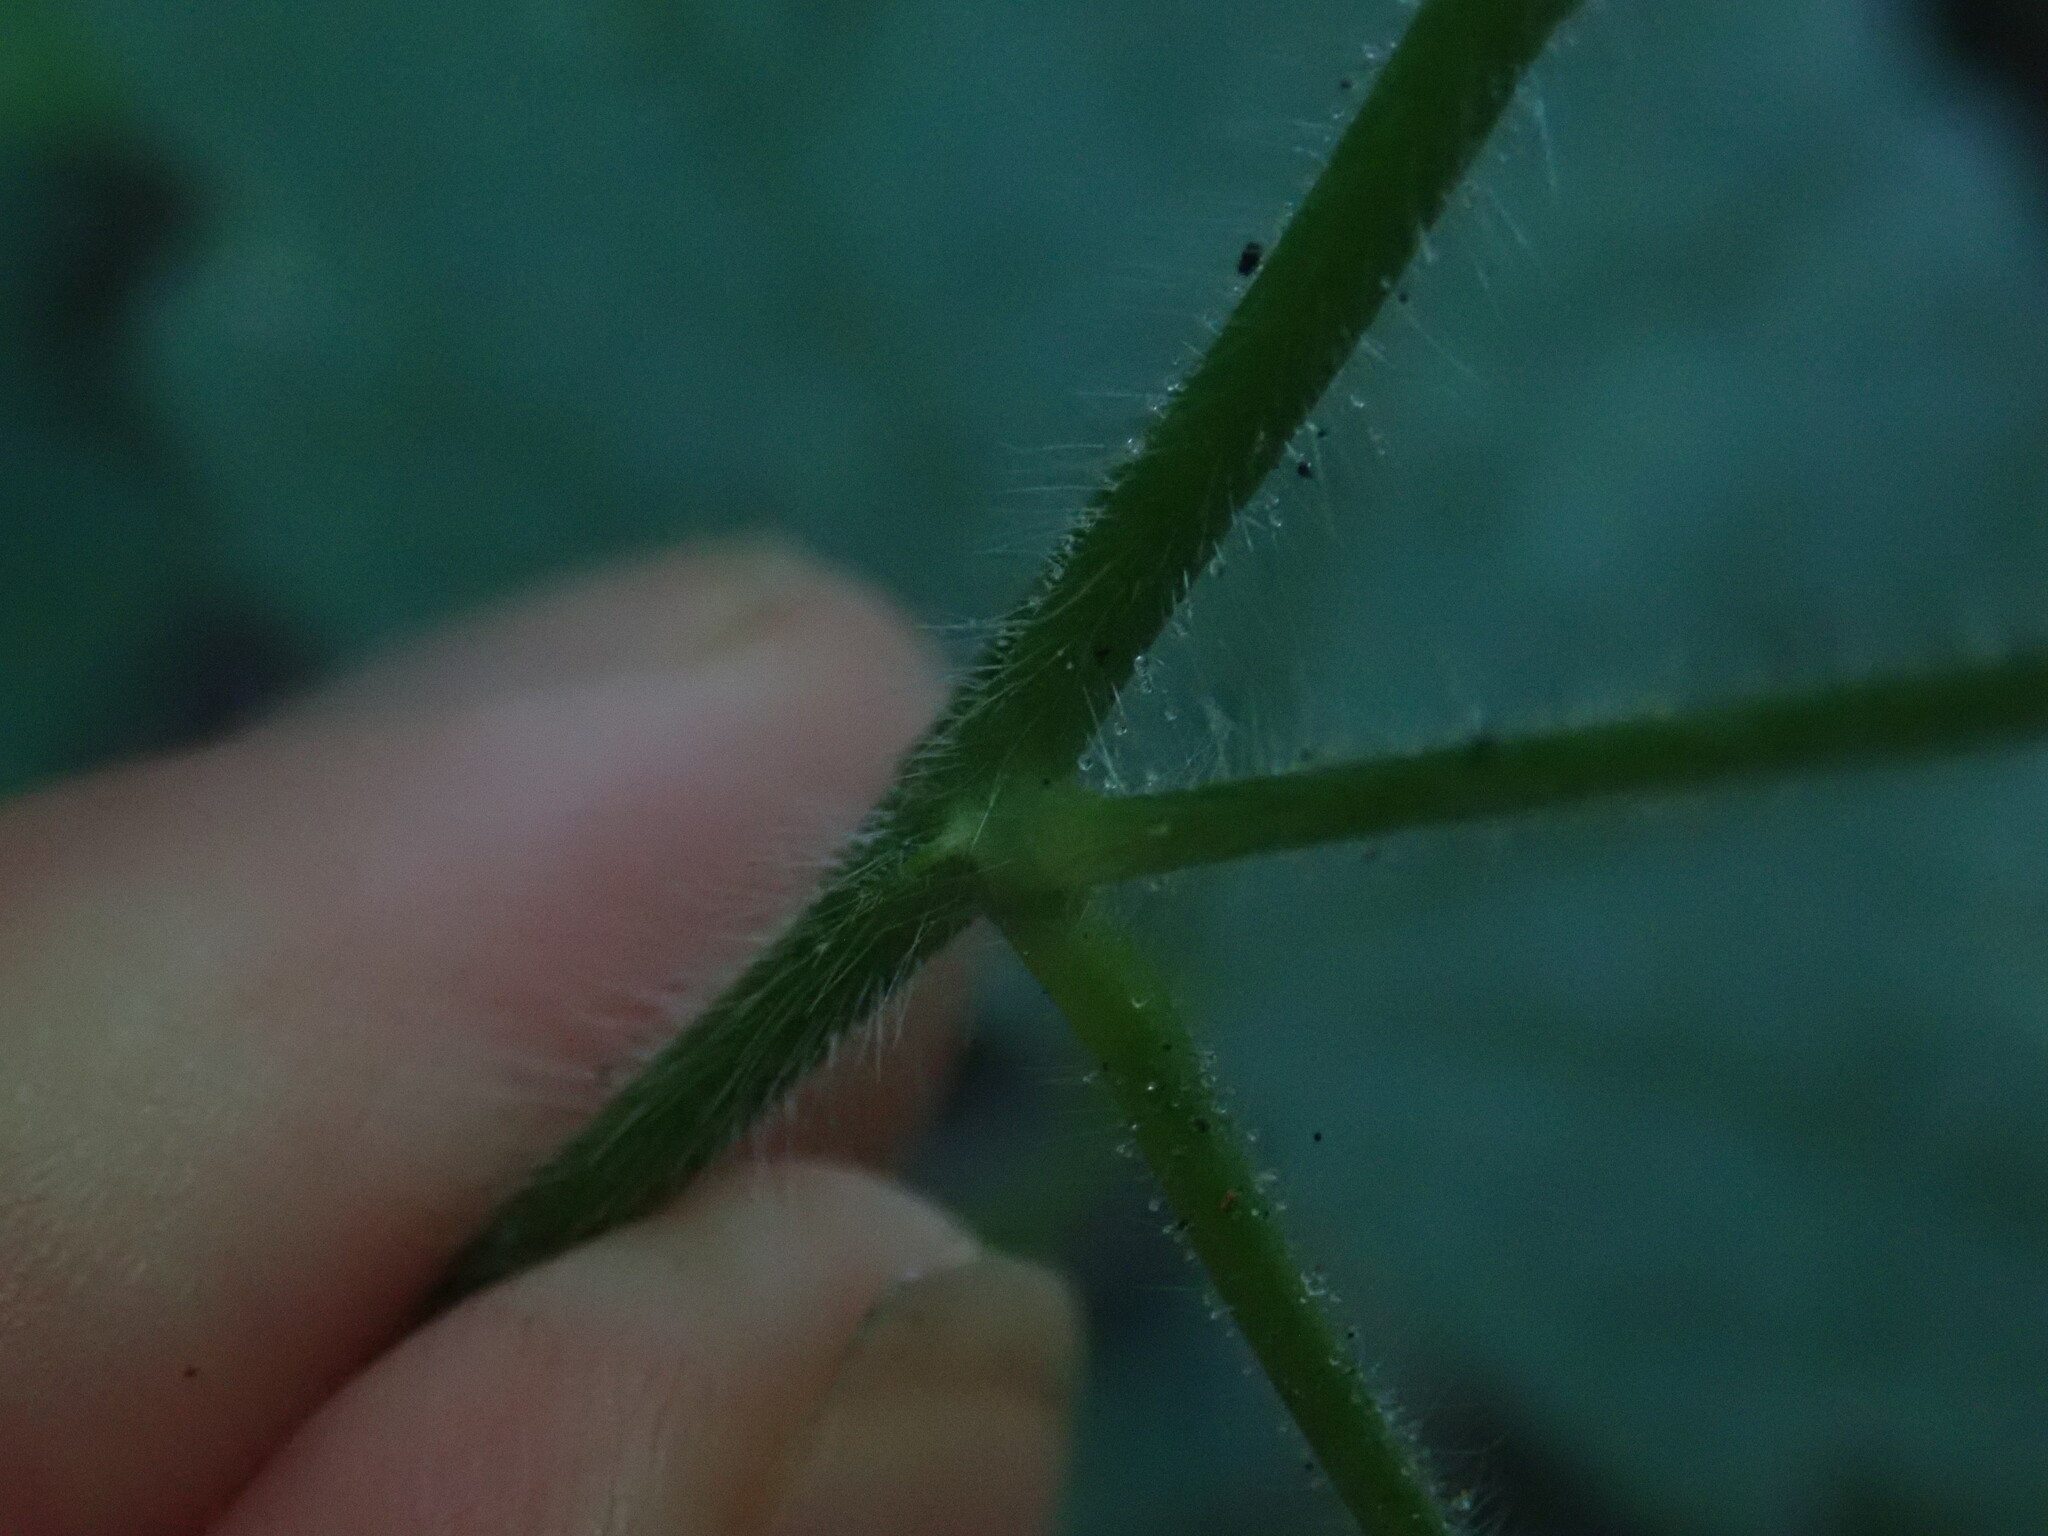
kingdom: Plantae
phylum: Tracheophyta
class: Magnoliopsida
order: Malvales
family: Malvaceae
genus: Neobrittonia
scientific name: Neobrittonia acerifolia
